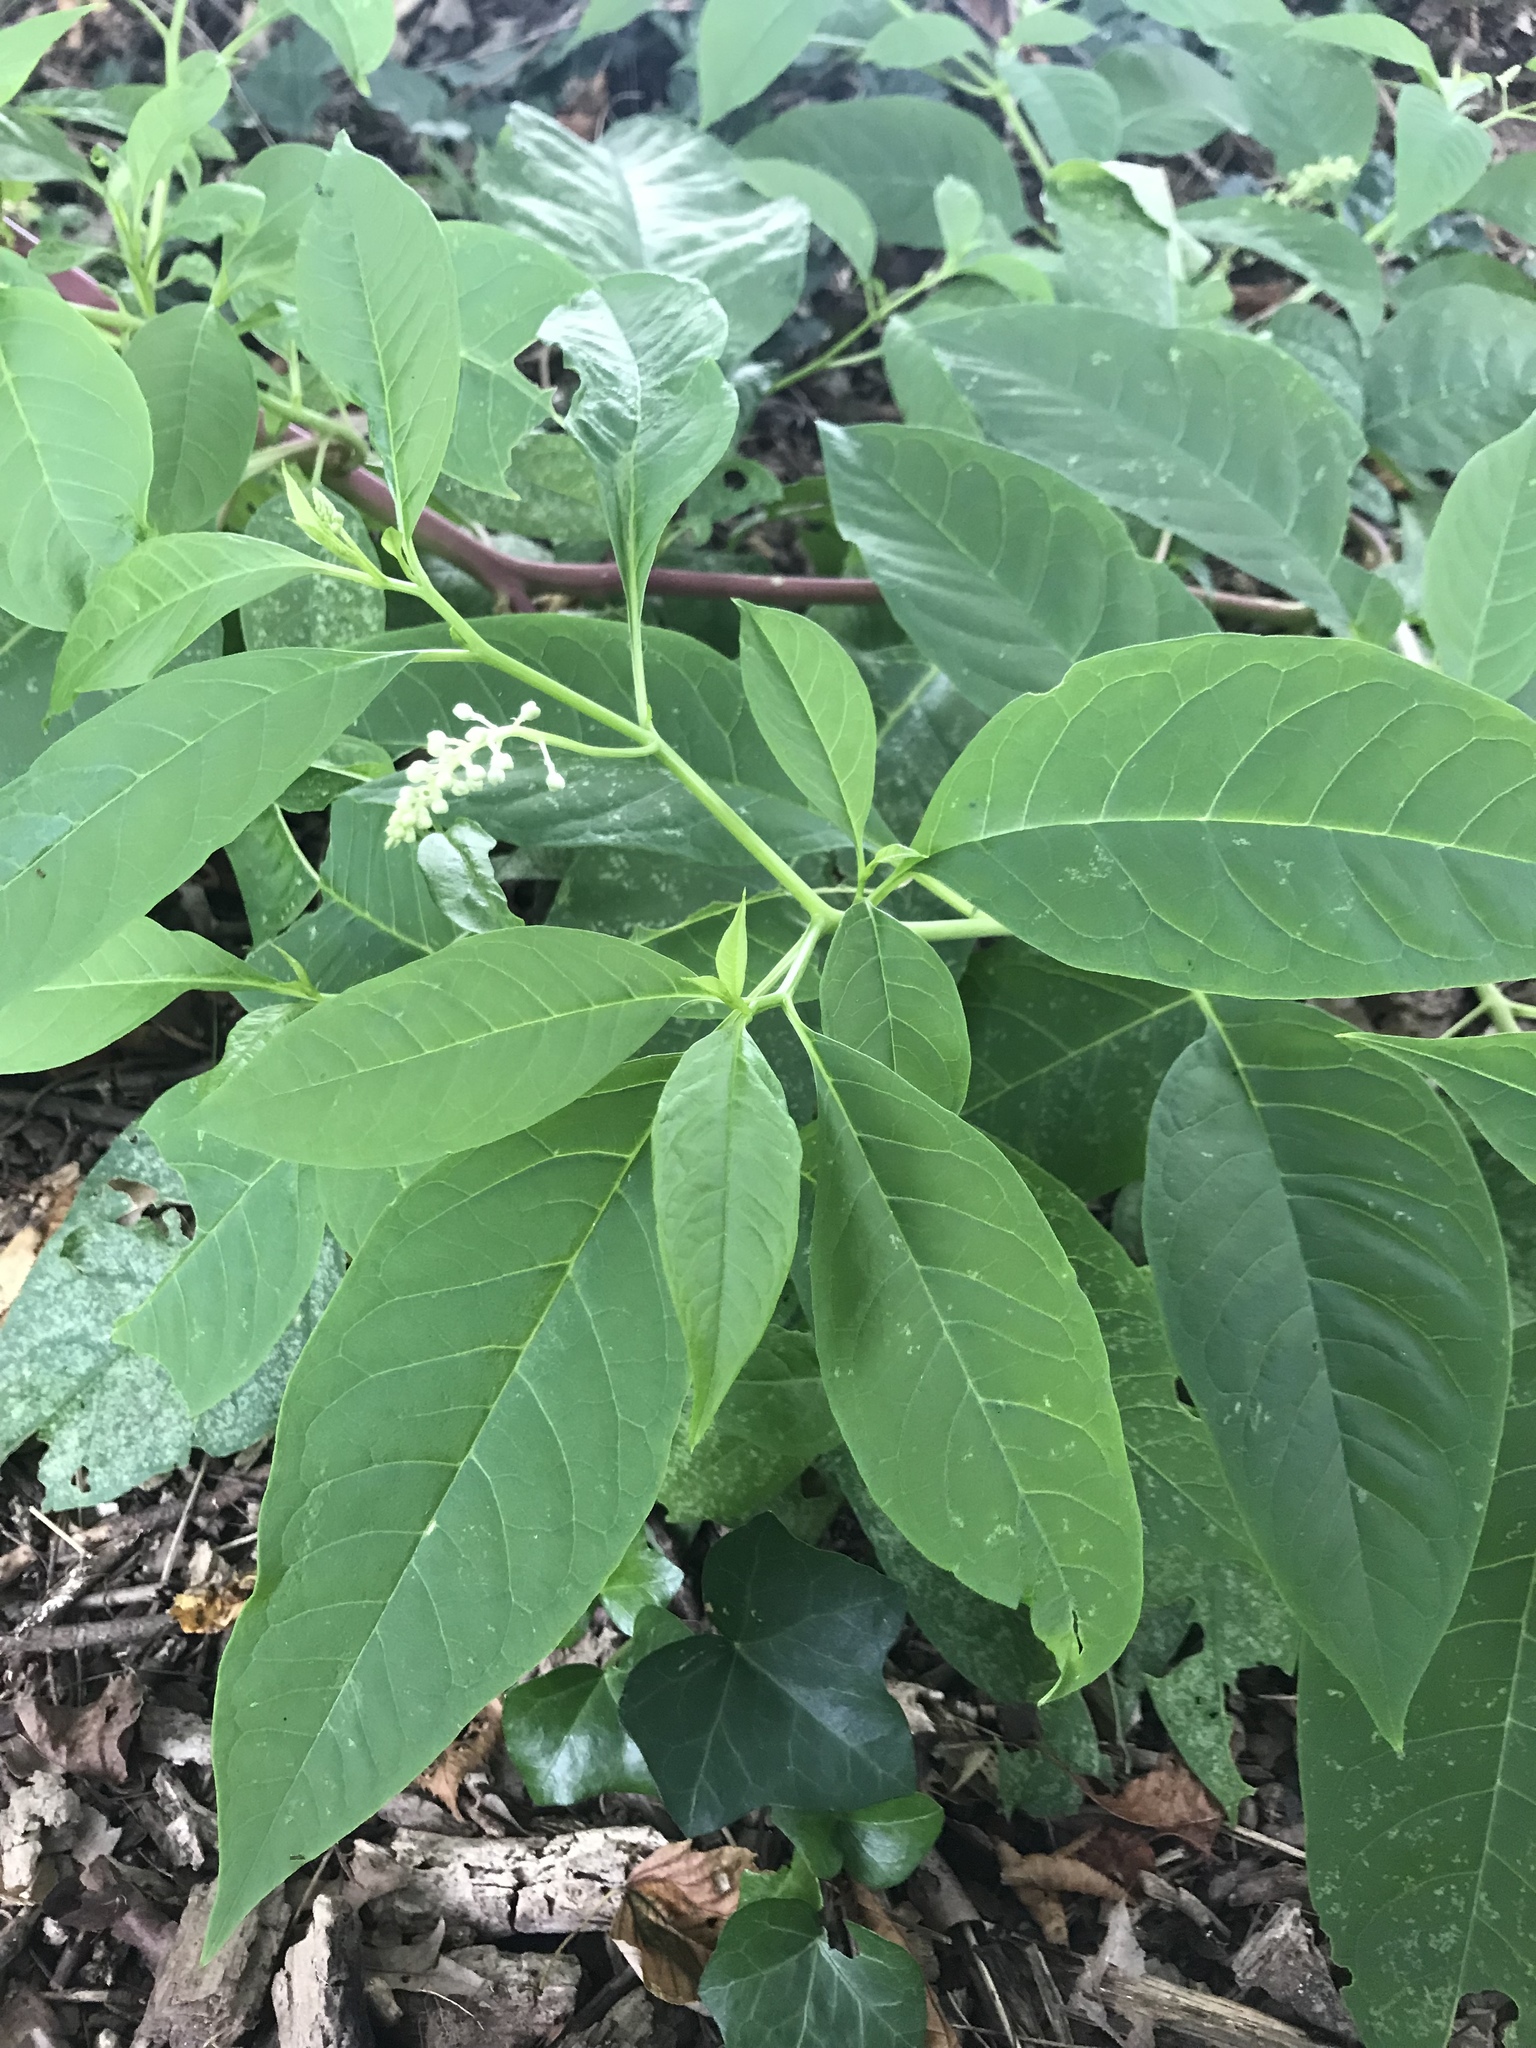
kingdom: Plantae
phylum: Tracheophyta
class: Magnoliopsida
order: Caryophyllales
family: Phytolaccaceae
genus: Phytolacca
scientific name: Phytolacca americana
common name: American pokeweed
